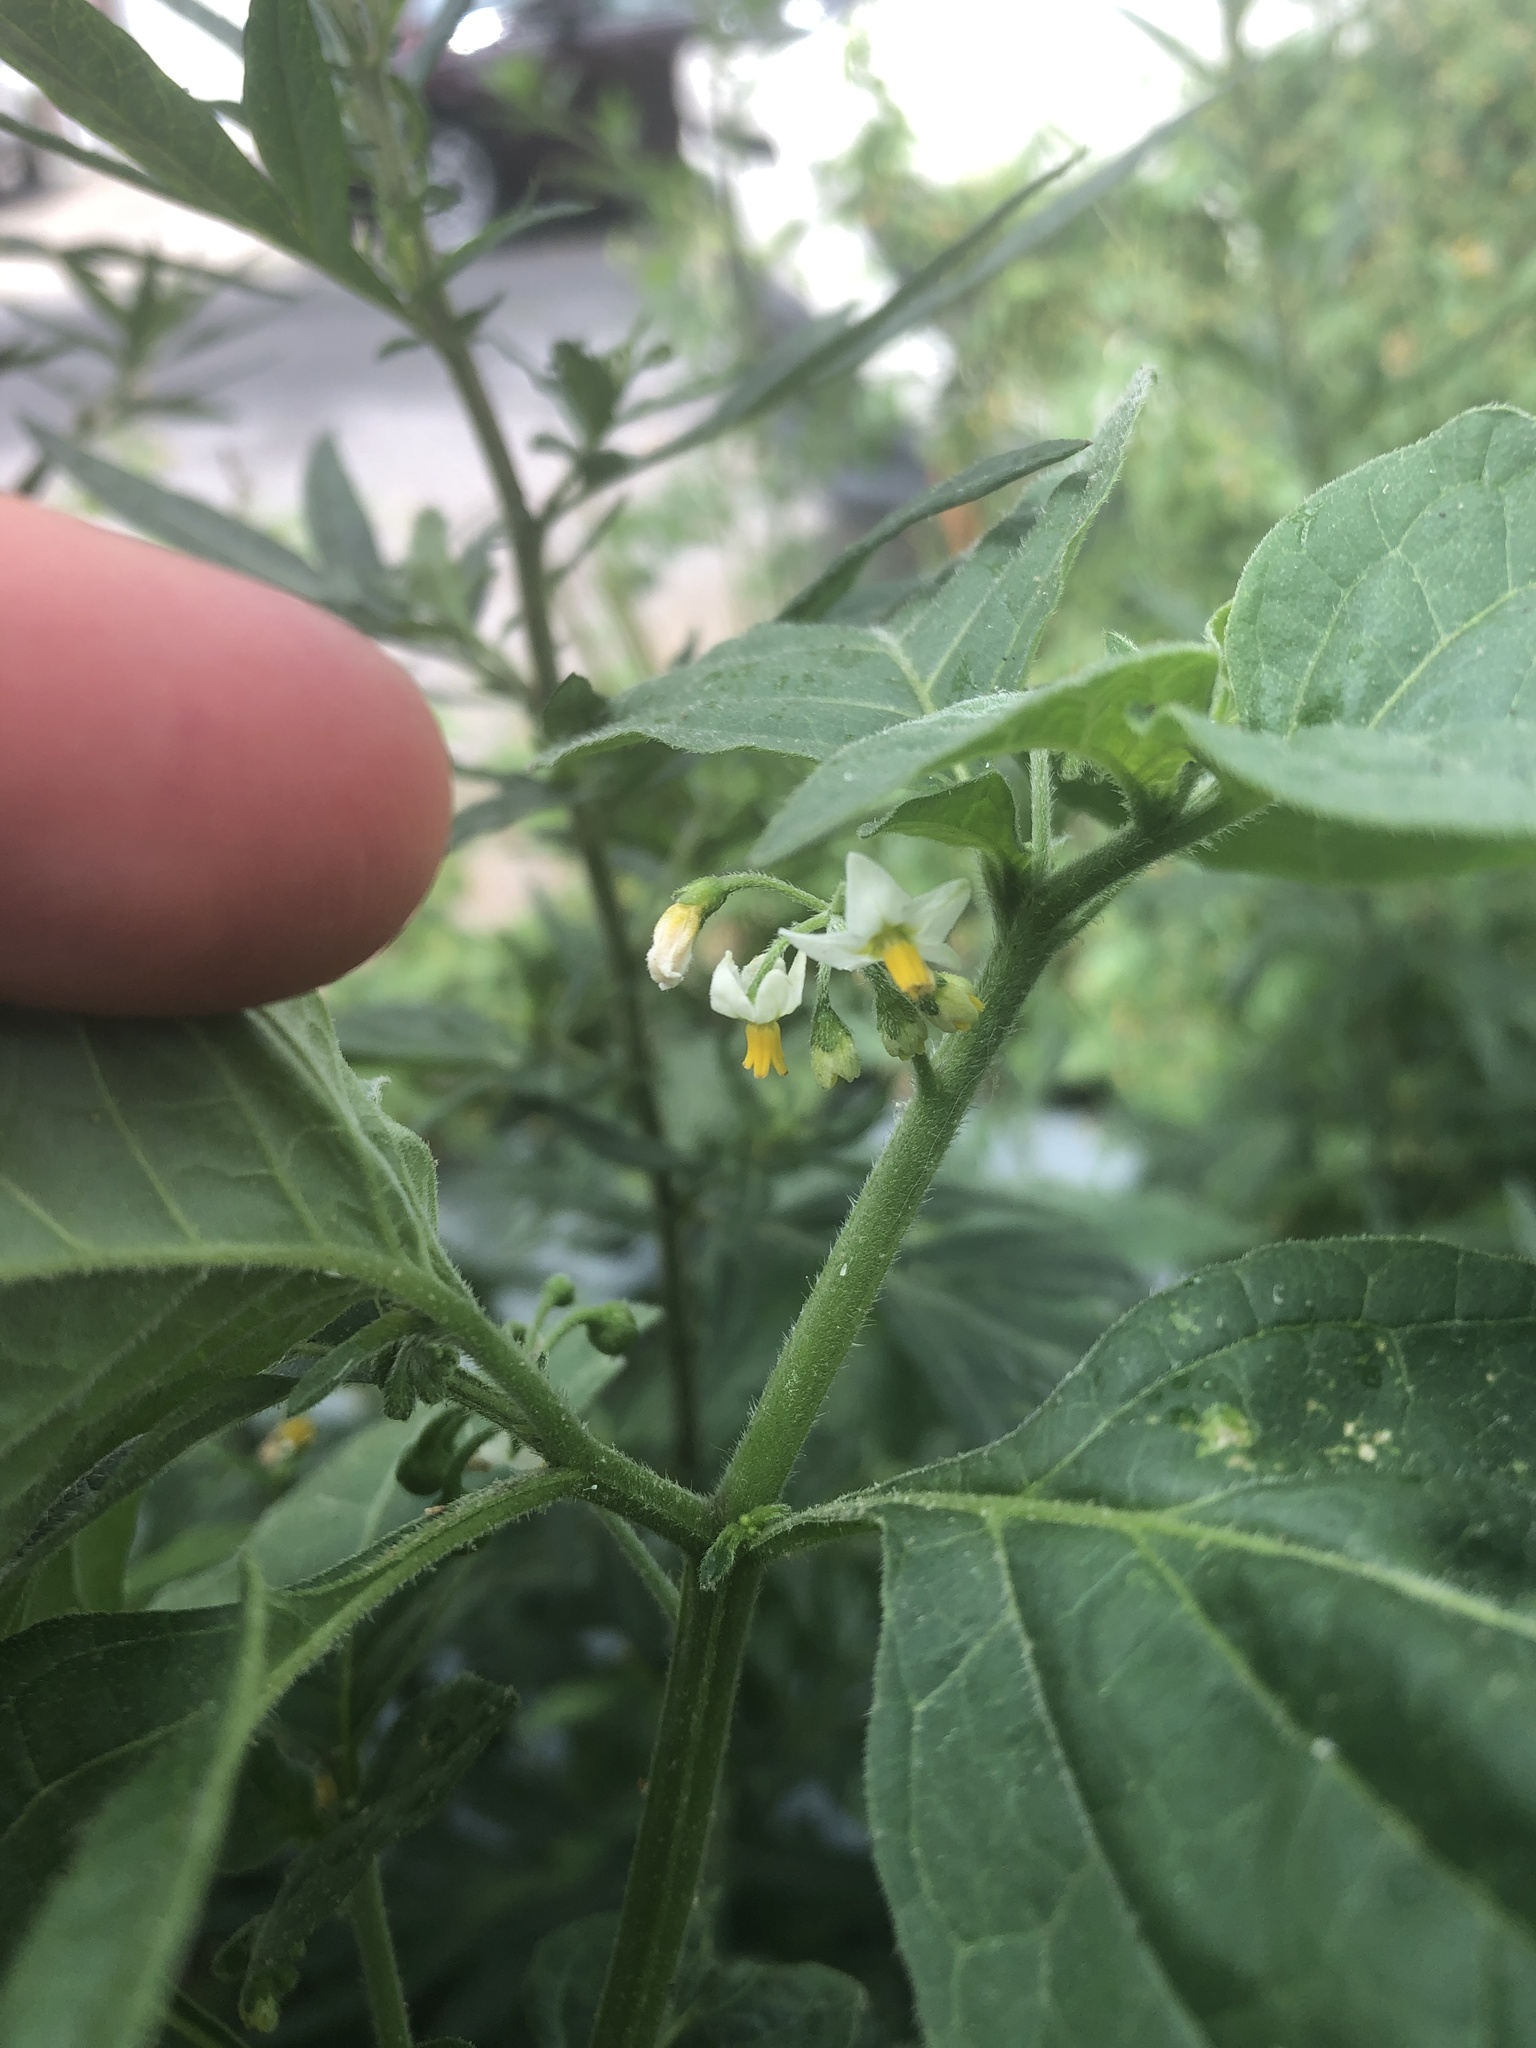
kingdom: Plantae
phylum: Tracheophyta
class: Magnoliopsida
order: Solanales
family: Solanaceae
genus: Solanum
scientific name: Solanum nigrum
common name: Black nightshade
